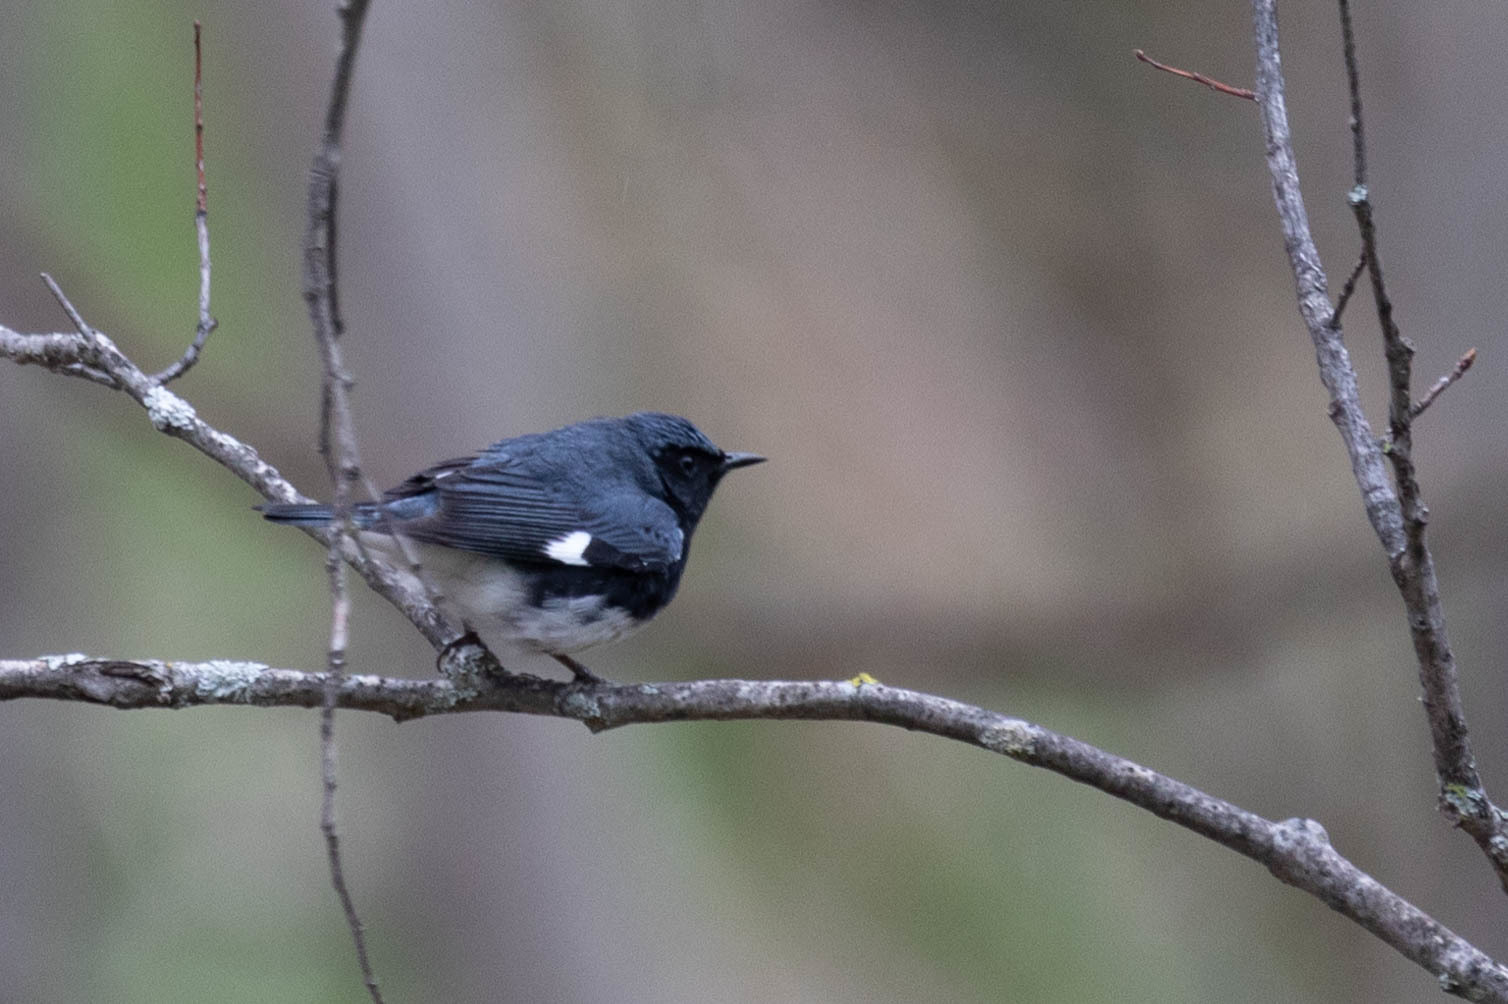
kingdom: Animalia
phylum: Chordata
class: Aves
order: Passeriformes
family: Parulidae
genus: Setophaga
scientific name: Setophaga caerulescens
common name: Black-throated blue warbler
